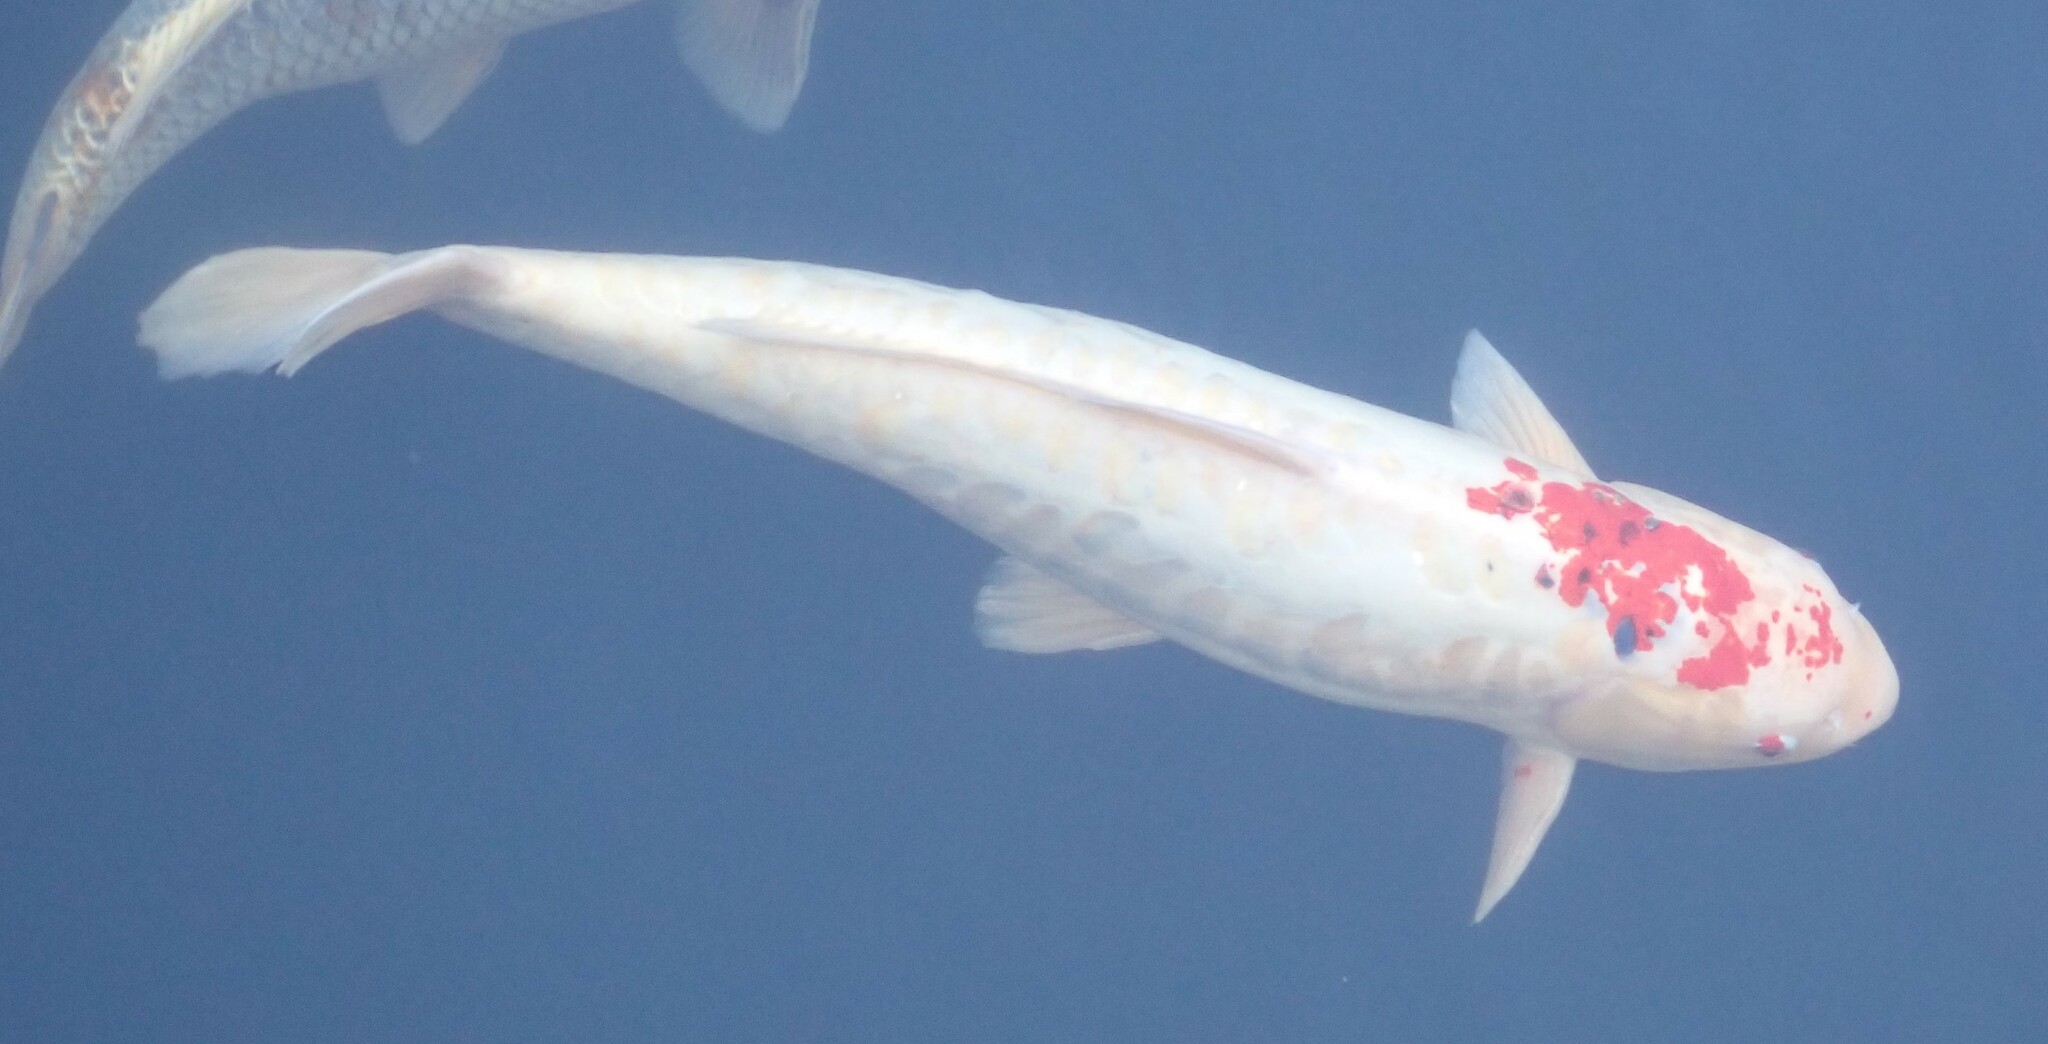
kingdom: Animalia
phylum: Chordata
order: Cypriniformes
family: Cyprinidae
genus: Cyprinus
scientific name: Cyprinus rubrofuscus
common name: Koi
